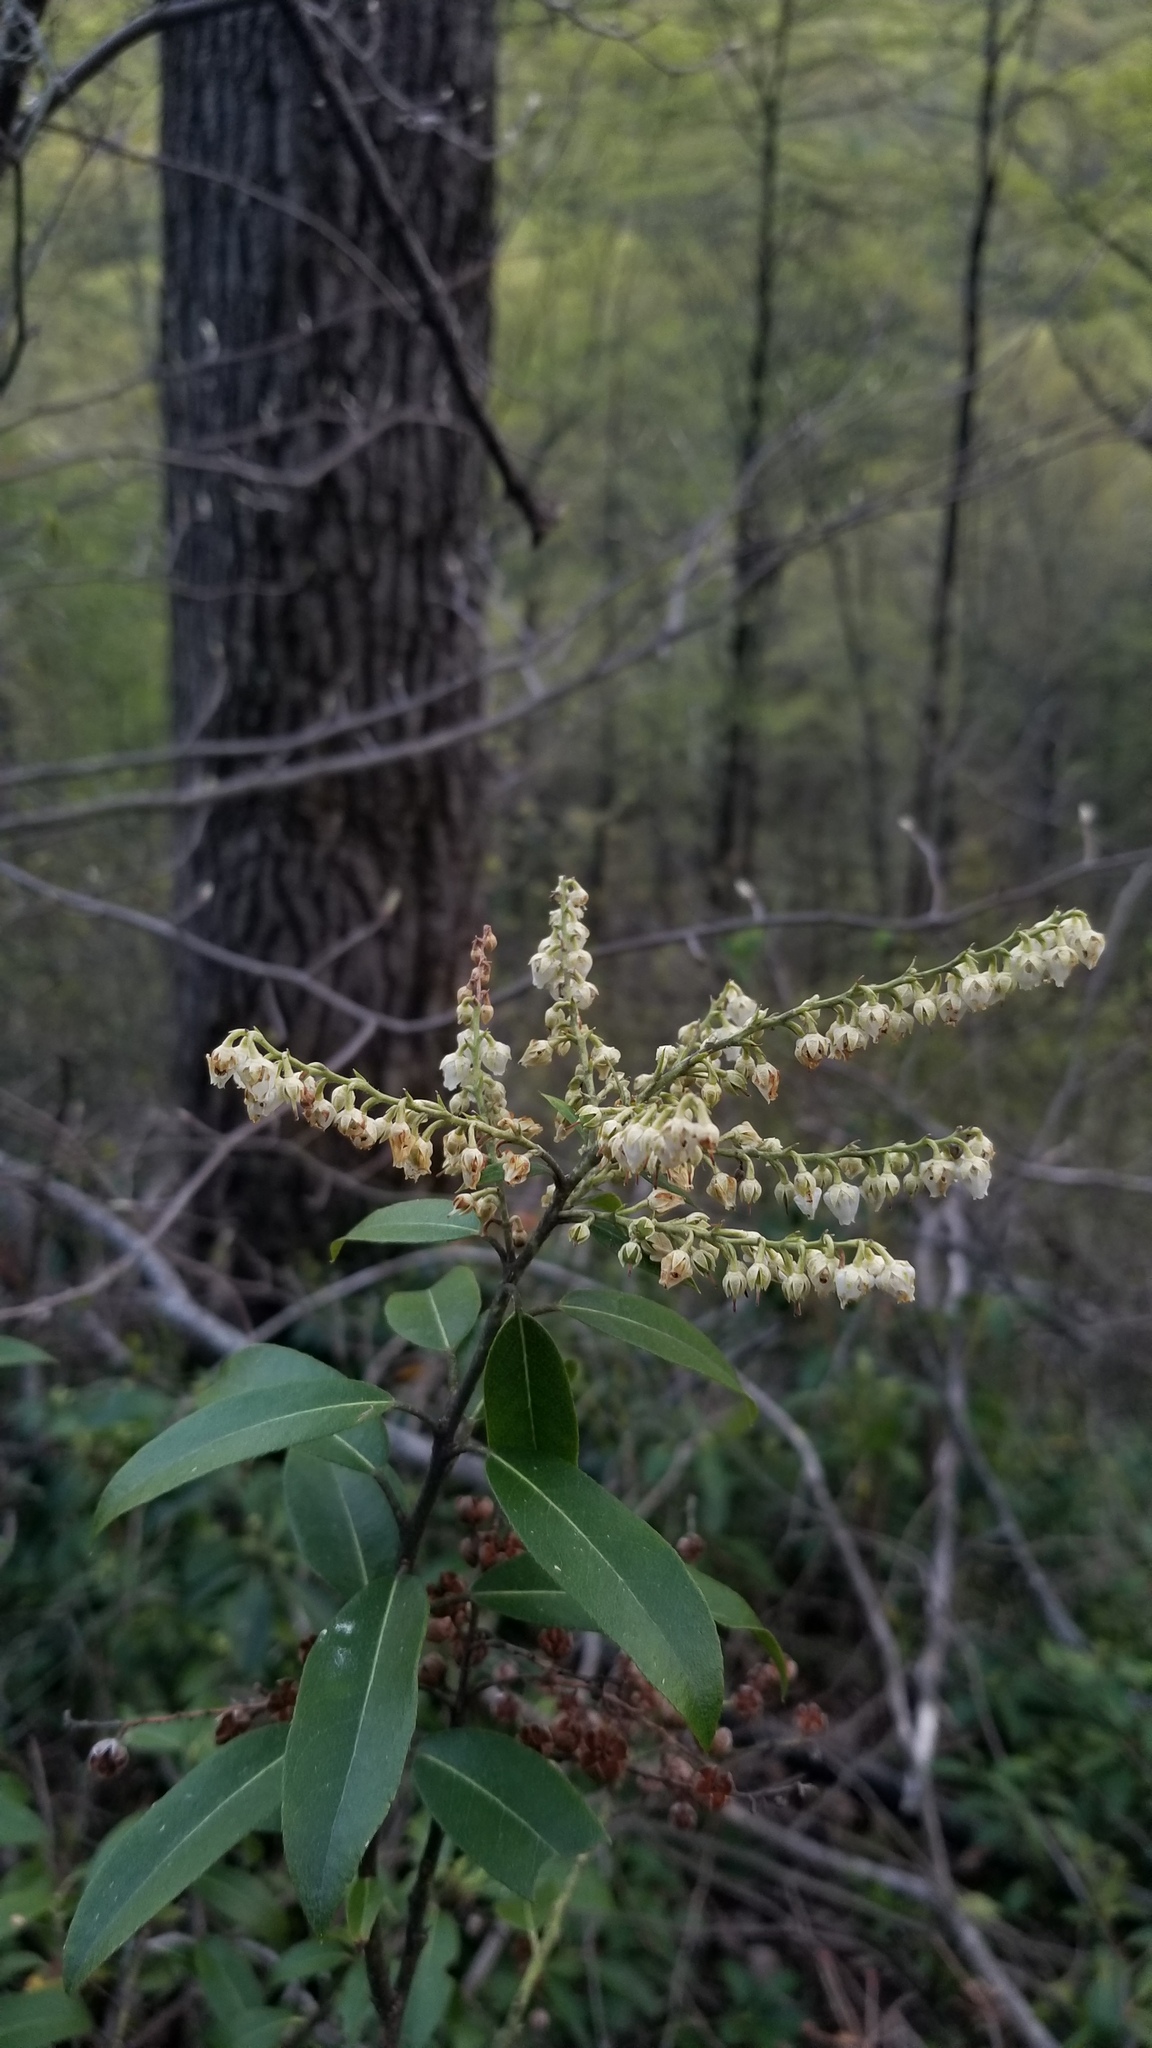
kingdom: Plantae
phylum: Tracheophyta
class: Magnoliopsida
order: Ericales
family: Ericaceae
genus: Pieris
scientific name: Pieris floribunda
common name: Flutterbush
